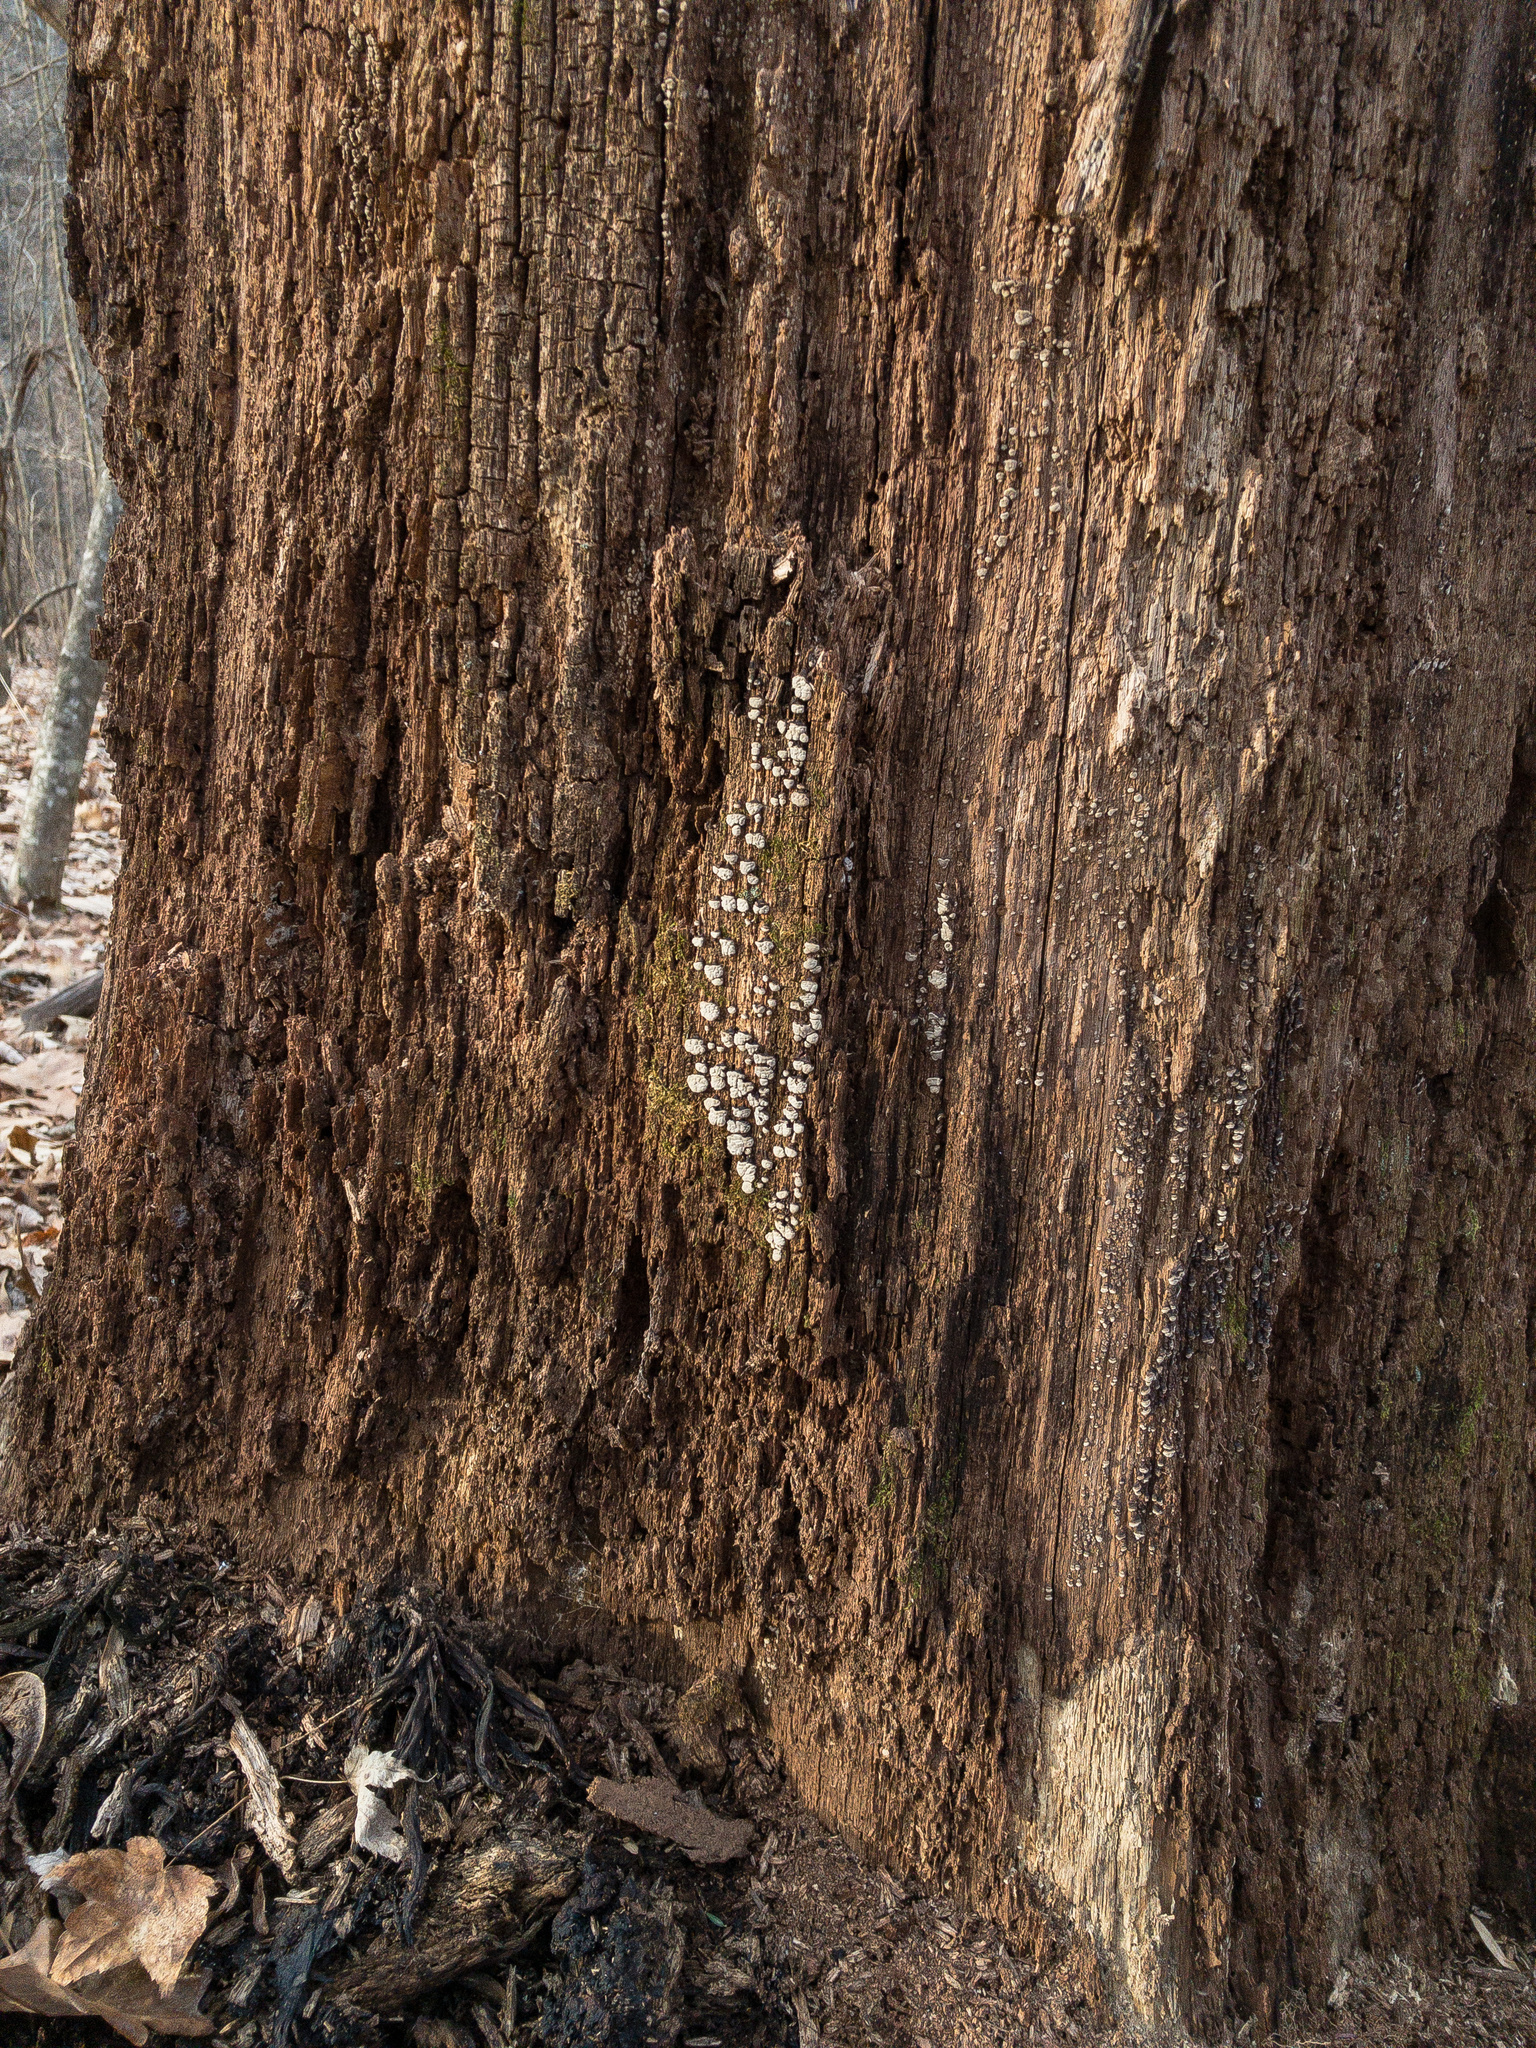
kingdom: Fungi
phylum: Basidiomycota
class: Agaricomycetes
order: Russulales
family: Stereaceae
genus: Xylobolus
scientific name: Xylobolus frustulatus
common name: Ceramic parchment
